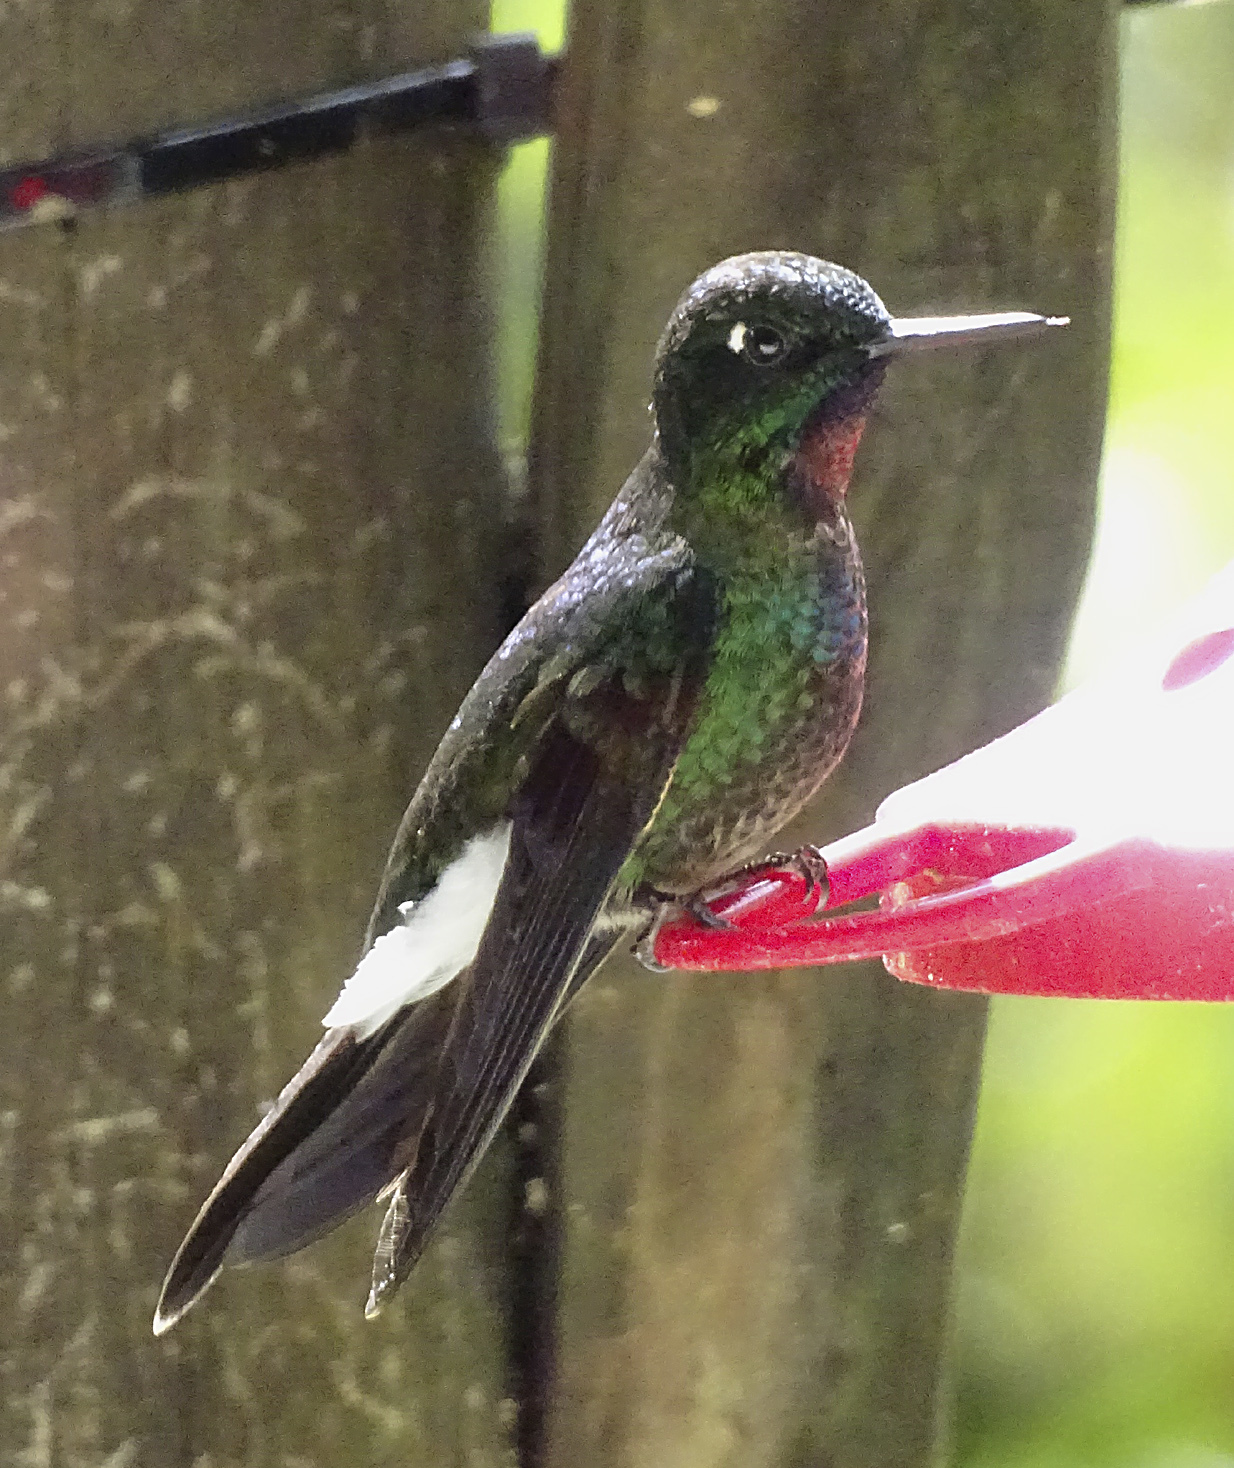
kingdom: Animalia
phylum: Chordata
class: Aves
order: Apodiformes
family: Trochilidae
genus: Heliangelus
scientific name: Heliangelus exortis
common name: Tourmaline sunangel
